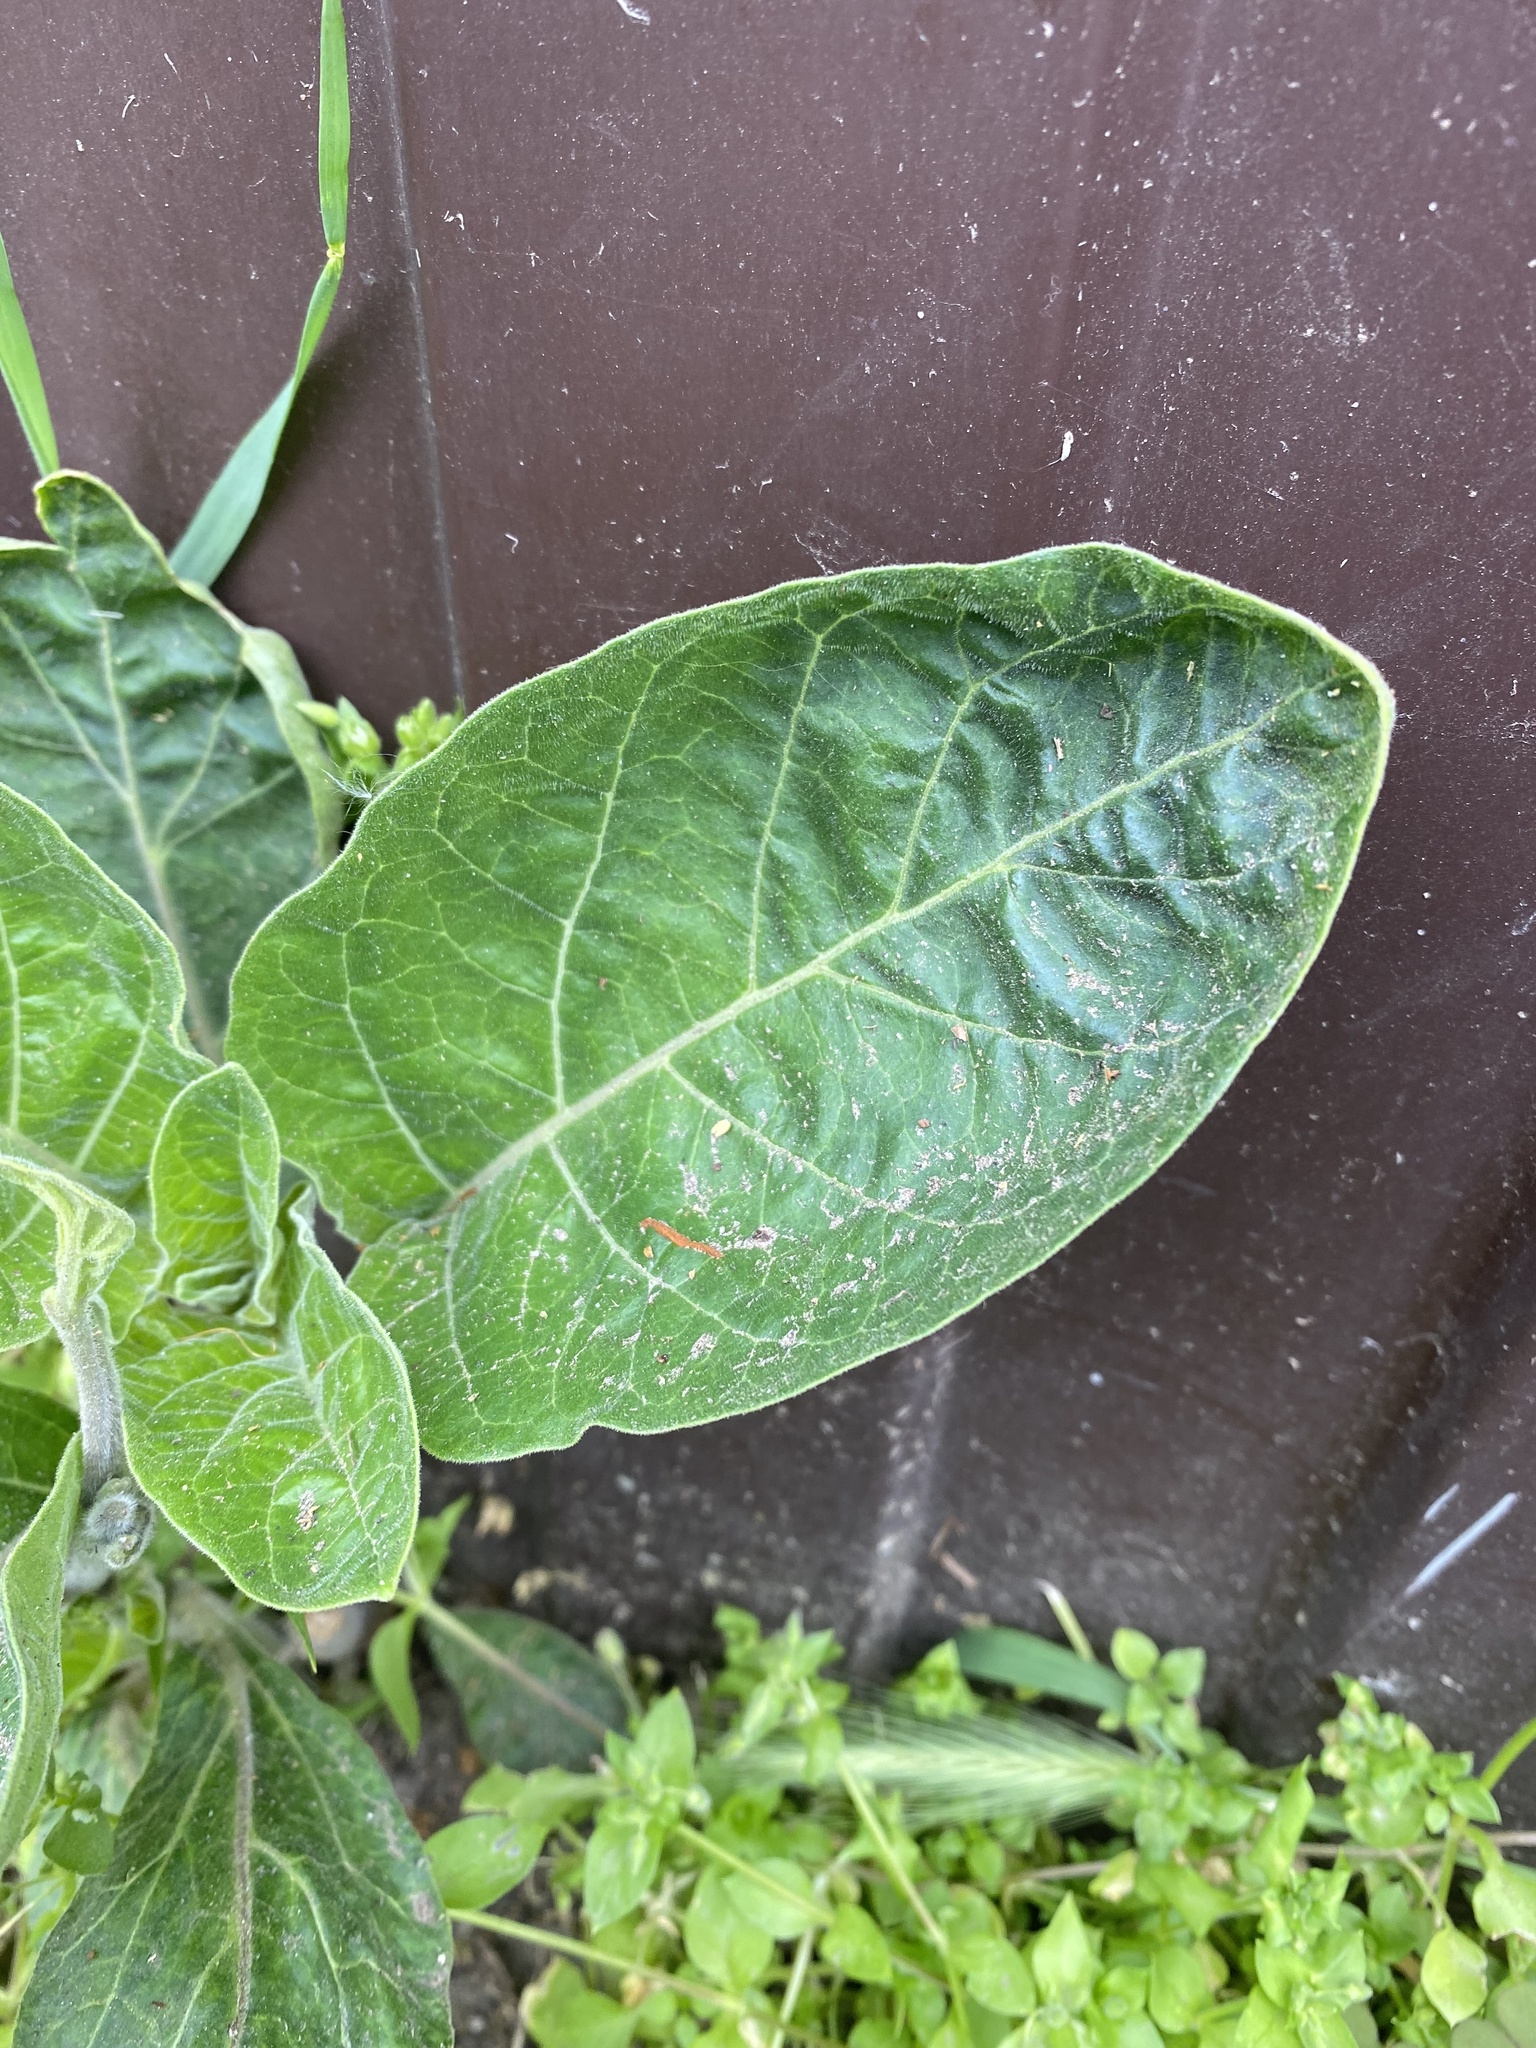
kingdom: Plantae
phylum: Tracheophyta
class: Magnoliopsida
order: Solanales
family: Solanaceae
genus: Datura
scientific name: Datura innoxia
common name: Downy thorn-apple
